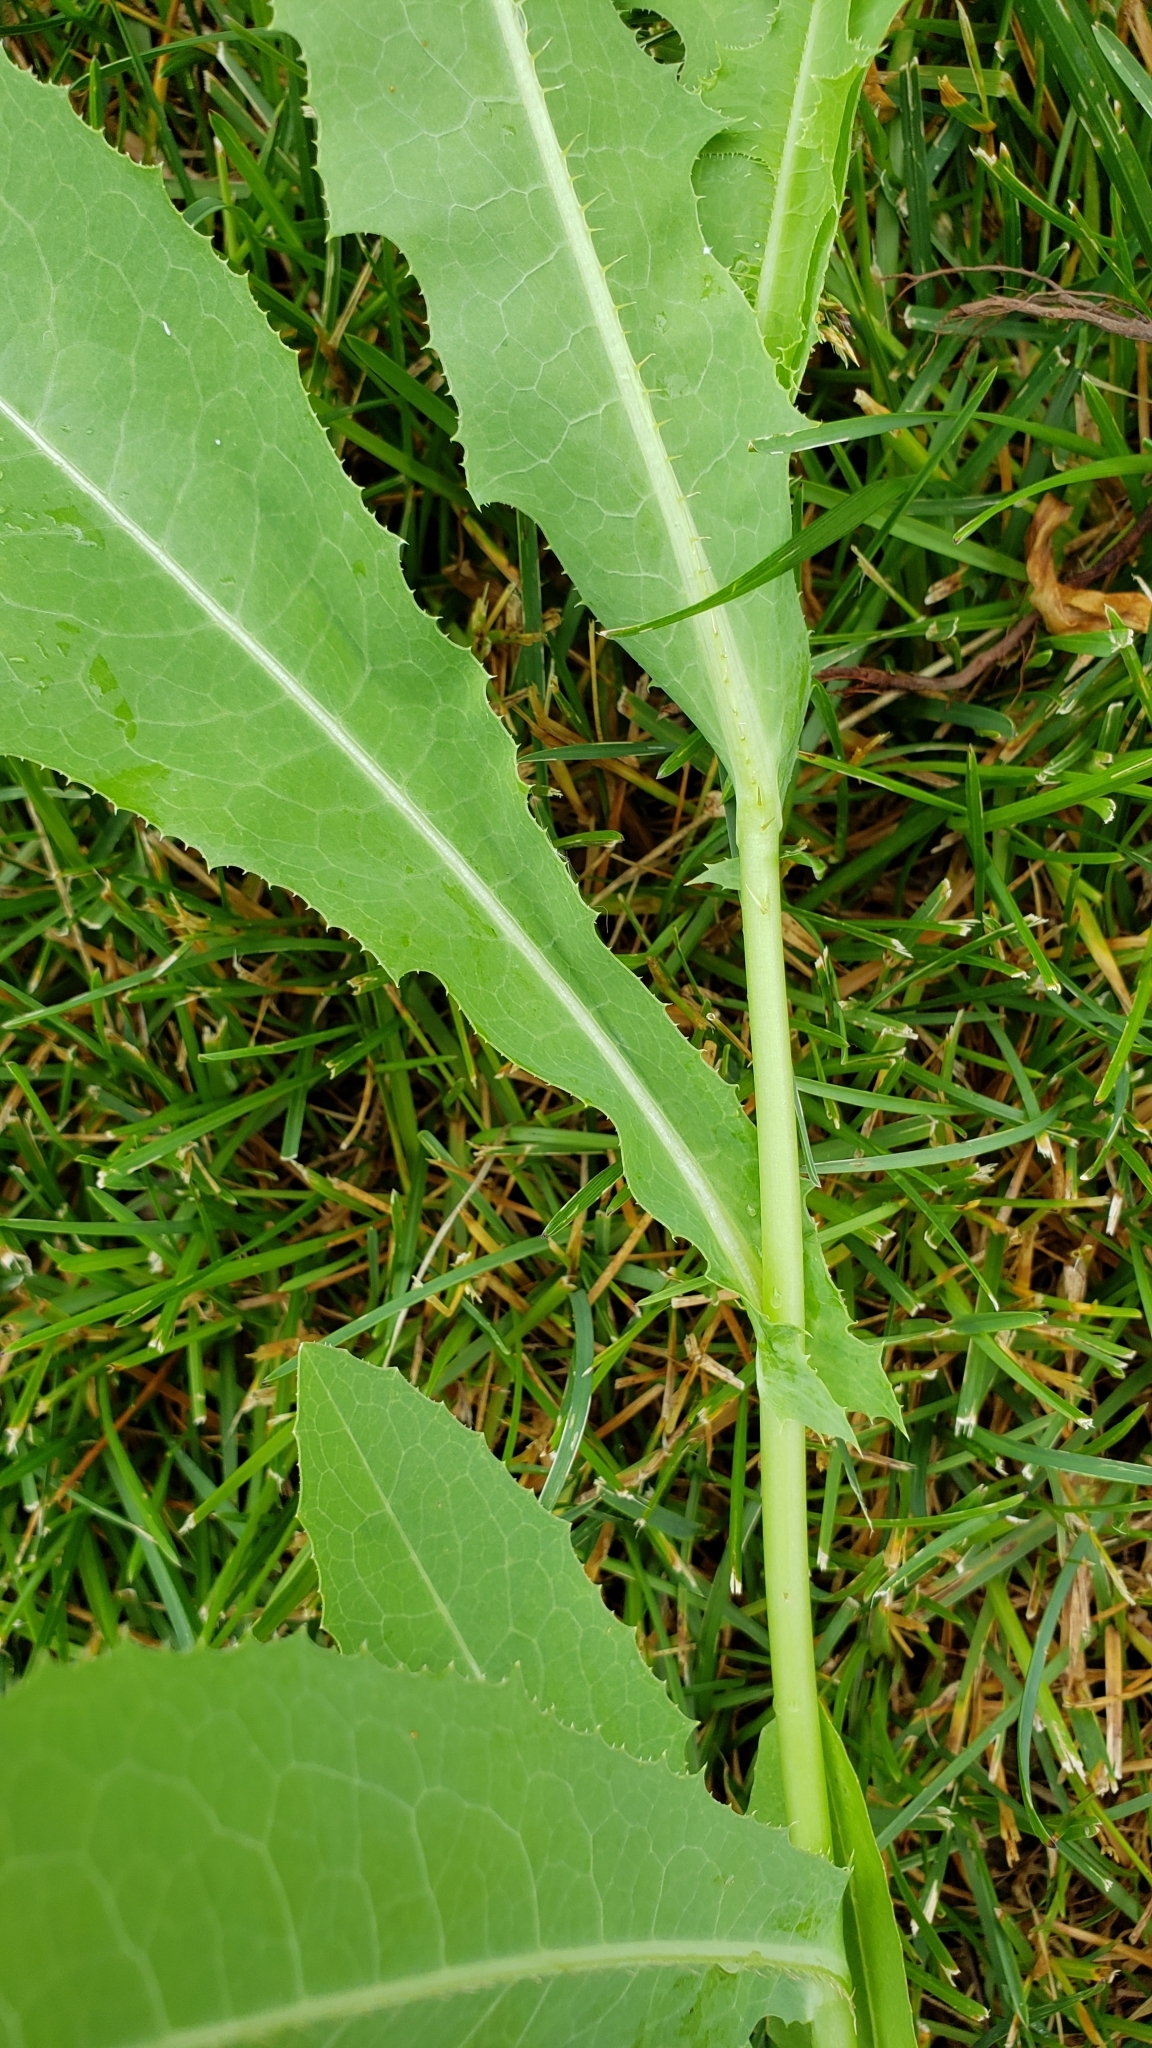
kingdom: Plantae
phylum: Tracheophyta
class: Magnoliopsida
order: Asterales
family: Asteraceae
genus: Lactuca
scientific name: Lactuca serriola
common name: Prickly lettuce
